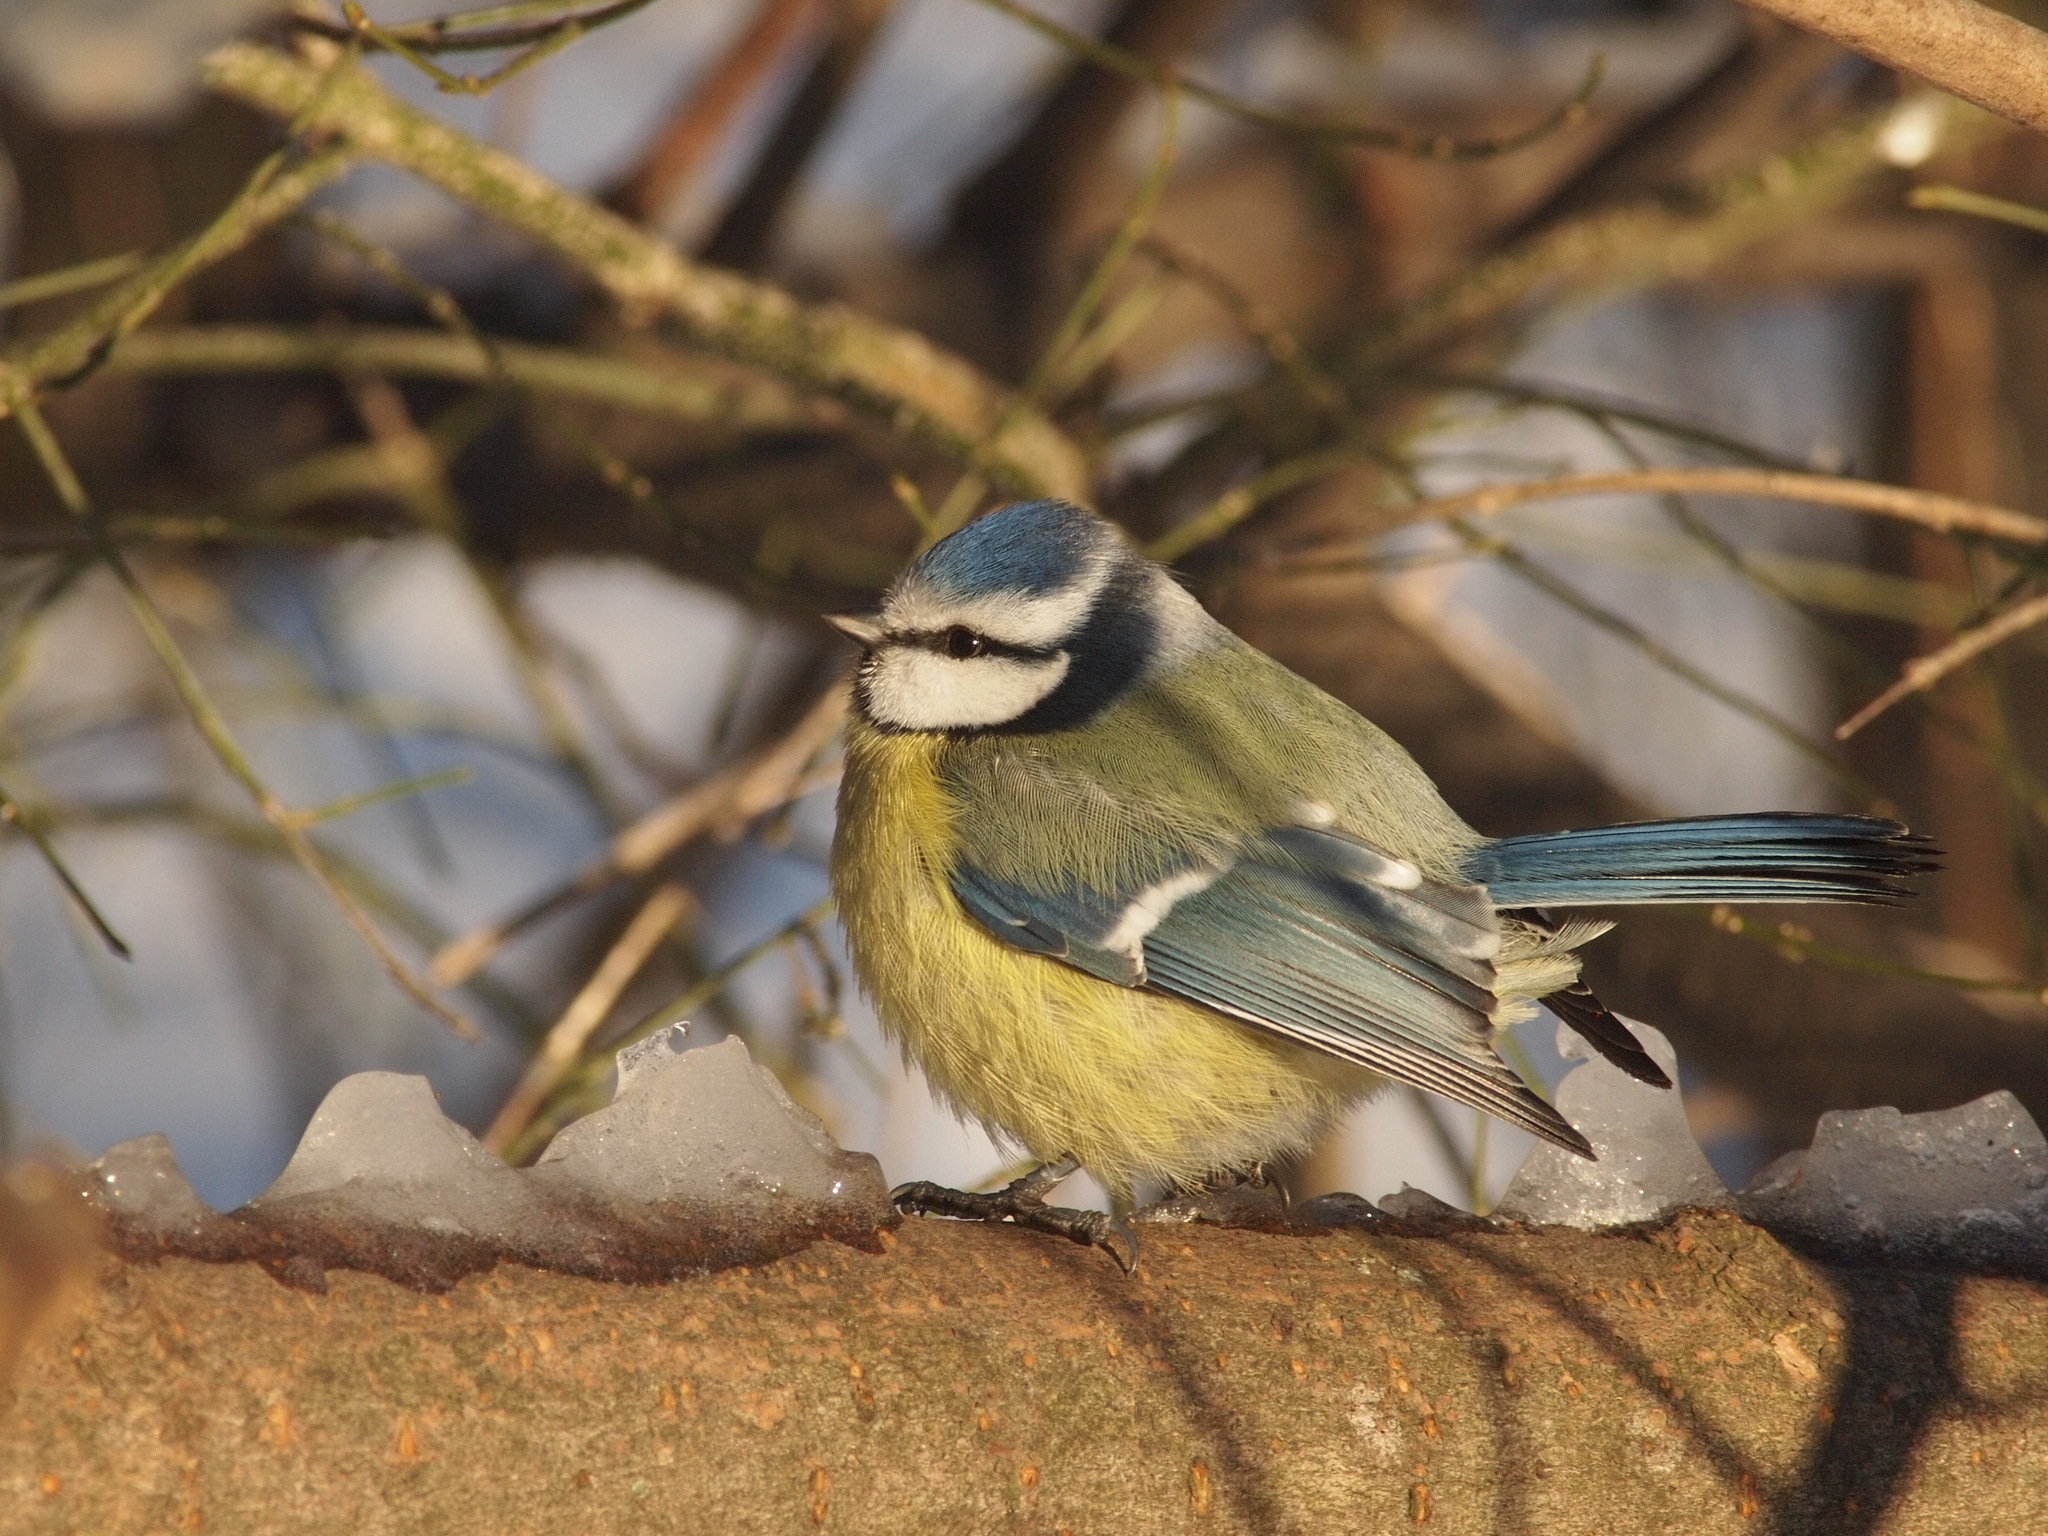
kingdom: Animalia
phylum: Chordata
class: Aves
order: Passeriformes
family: Paridae
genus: Cyanistes
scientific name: Cyanistes caeruleus
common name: Eurasian blue tit
